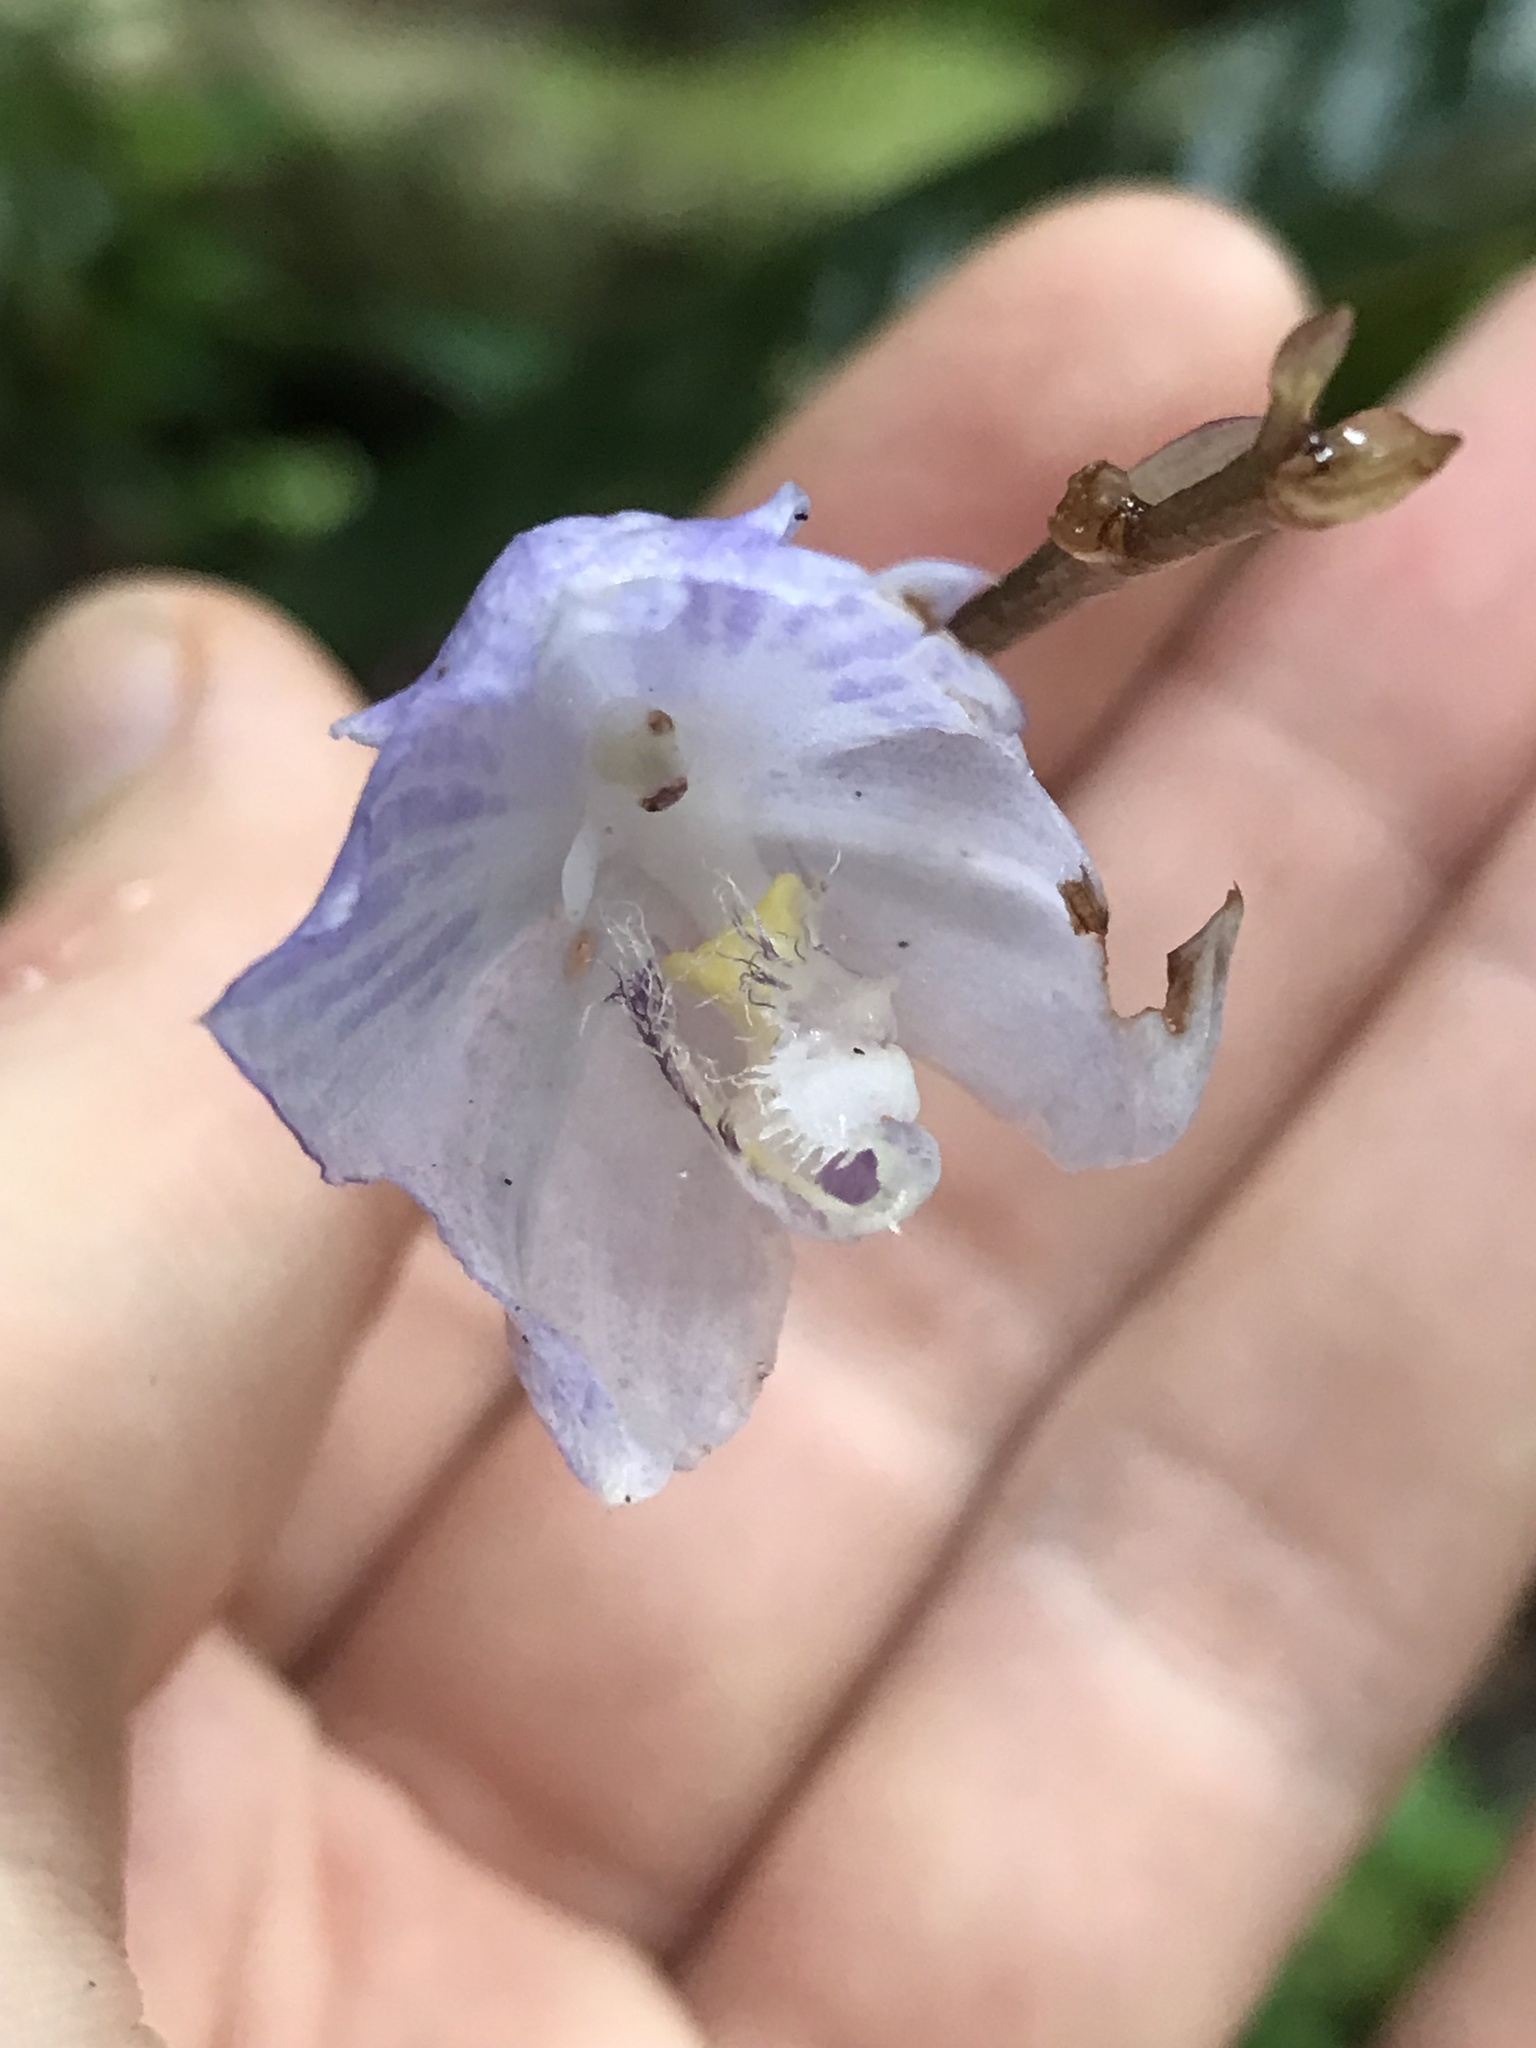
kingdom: Plantae
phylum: Tracheophyta
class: Liliopsida
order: Asparagales
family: Orchidaceae
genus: Aganisia
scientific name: Aganisia fimbriata
